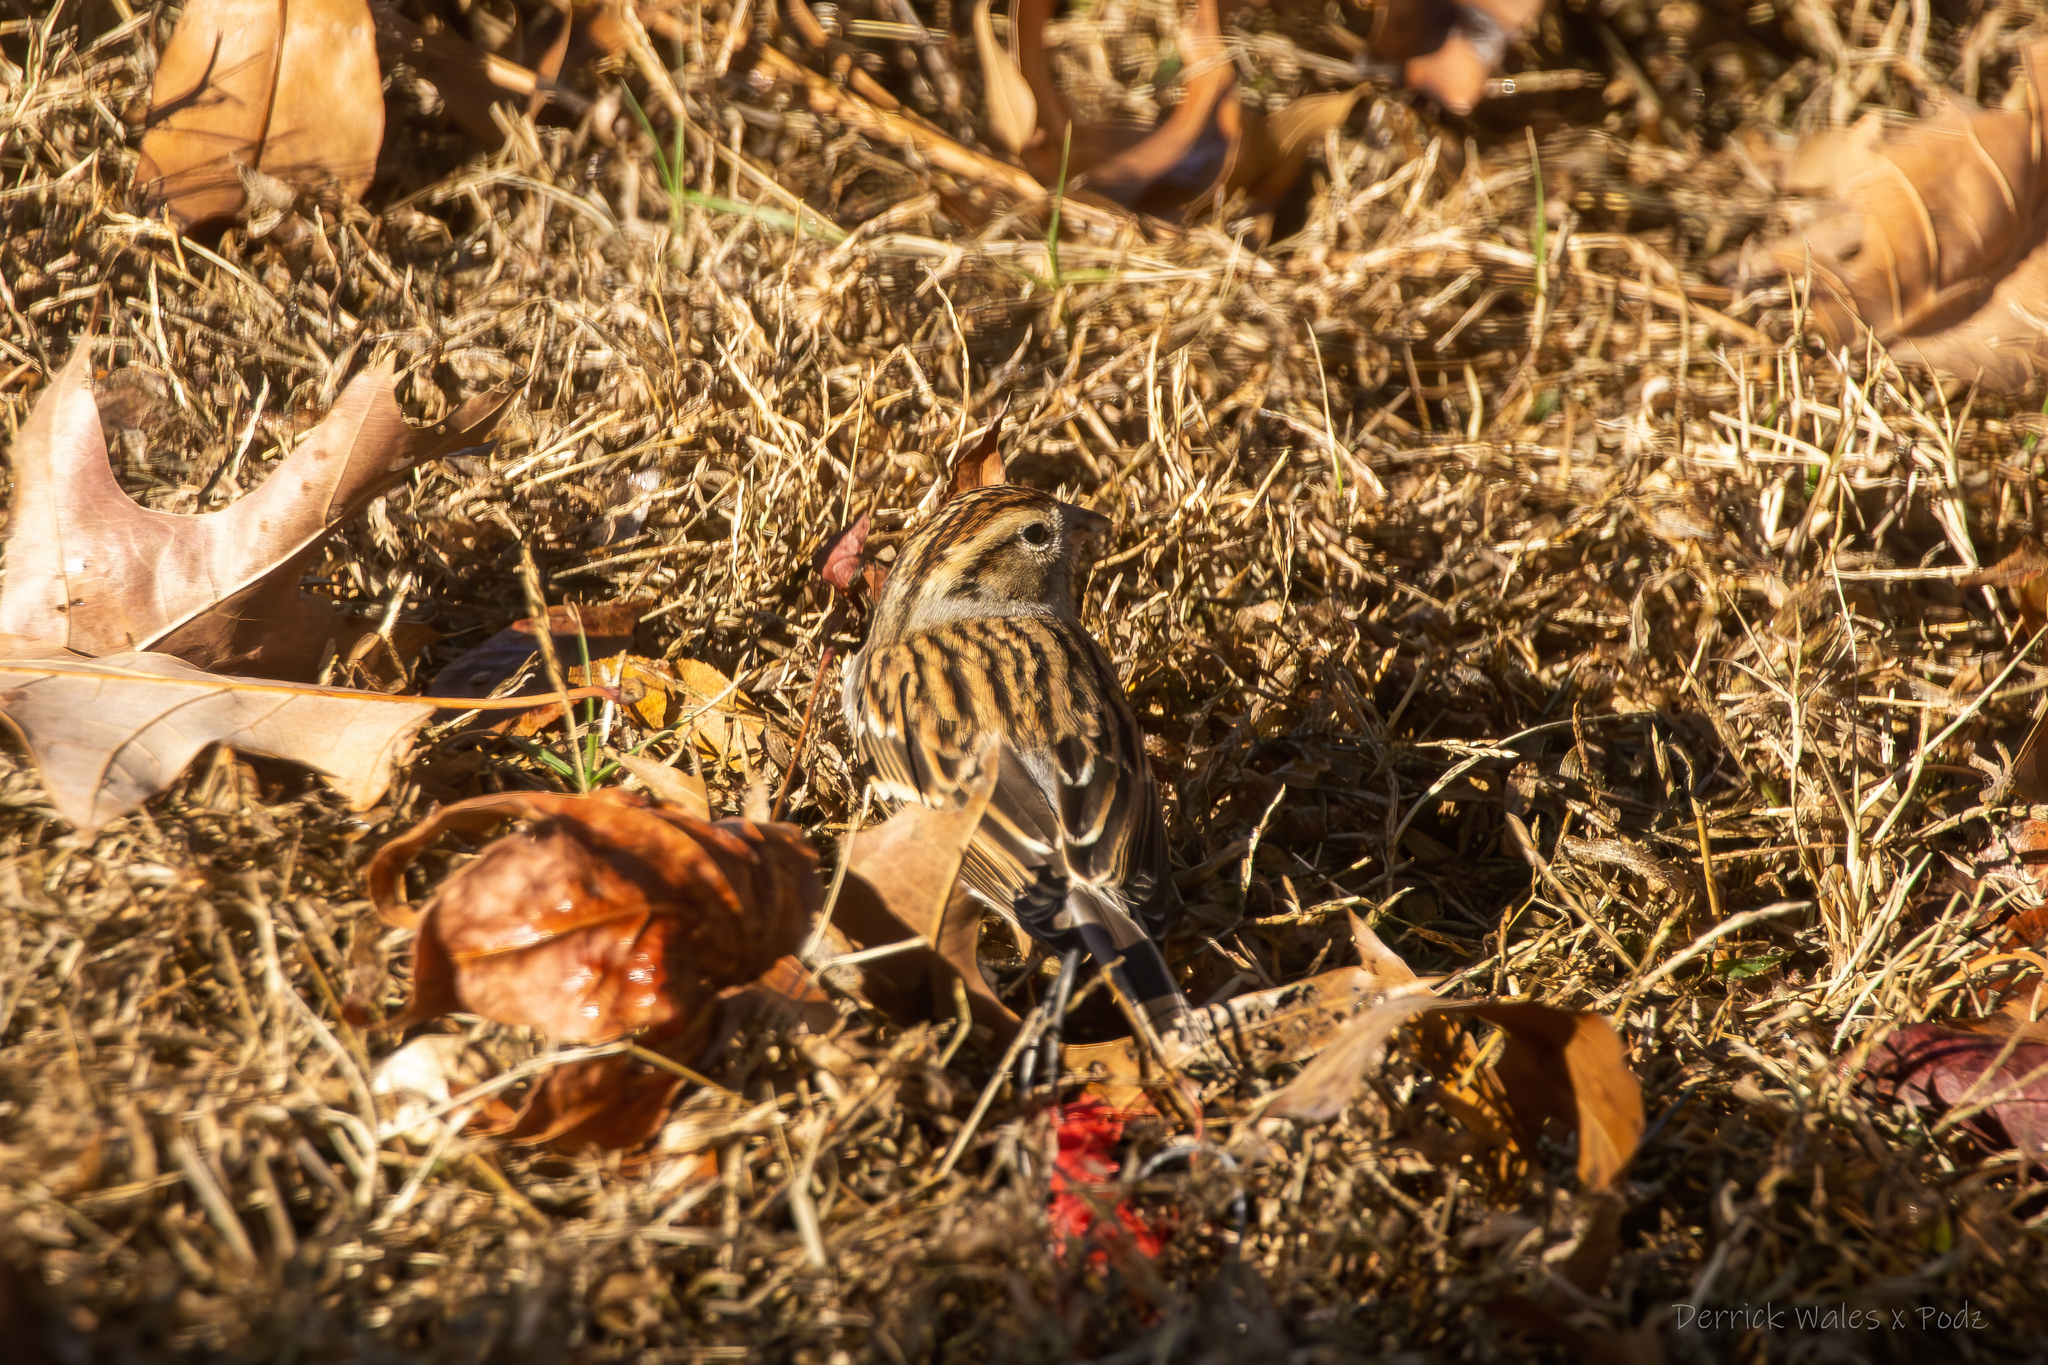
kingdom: Animalia
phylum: Chordata
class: Aves
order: Passeriformes
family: Passerellidae
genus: Spizella
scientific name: Spizella passerina
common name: Chipping sparrow
